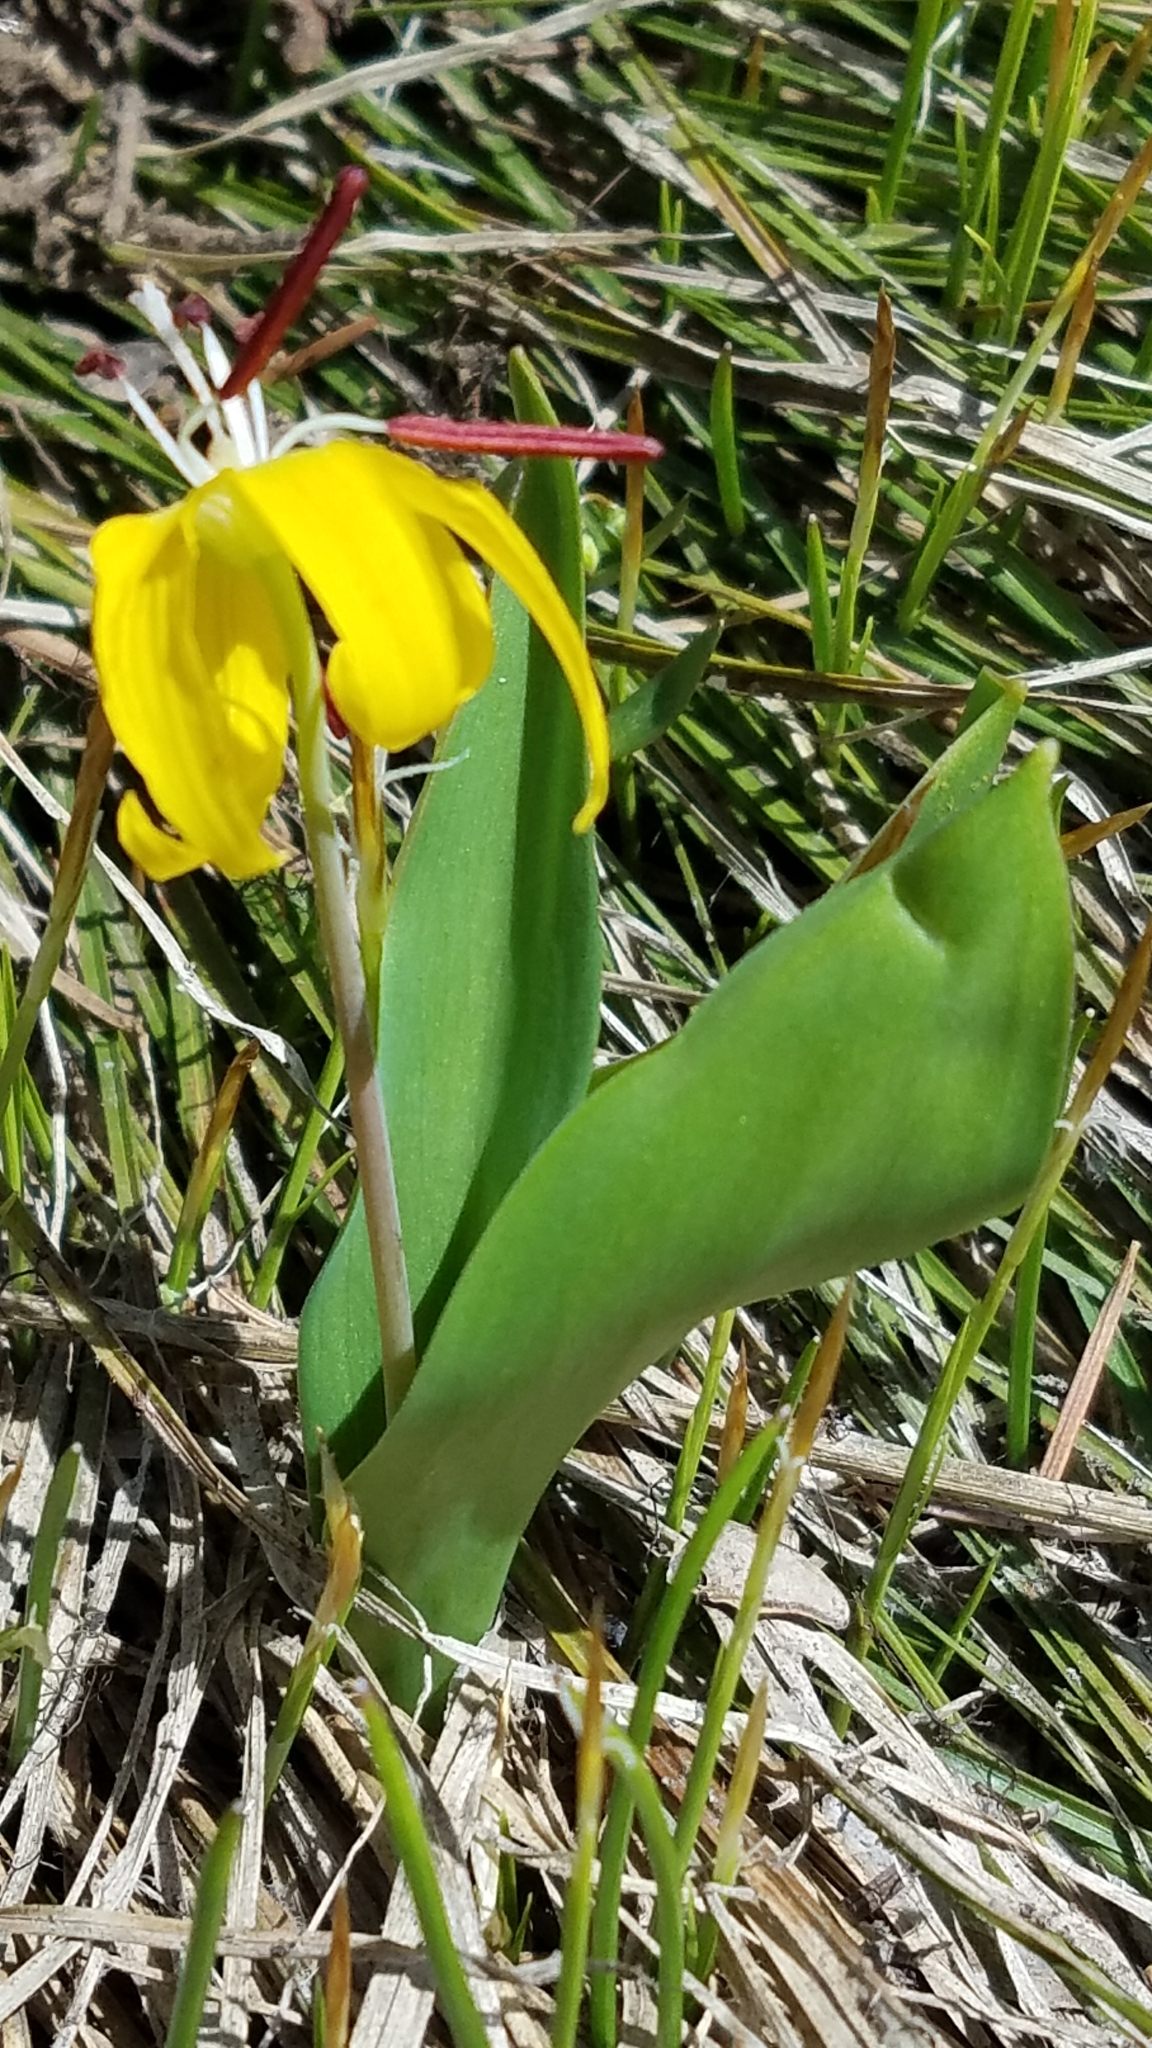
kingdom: Plantae
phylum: Tracheophyta
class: Liliopsida
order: Liliales
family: Liliaceae
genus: Erythronium
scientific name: Erythronium grandiflorum
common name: Avalanche-lily
